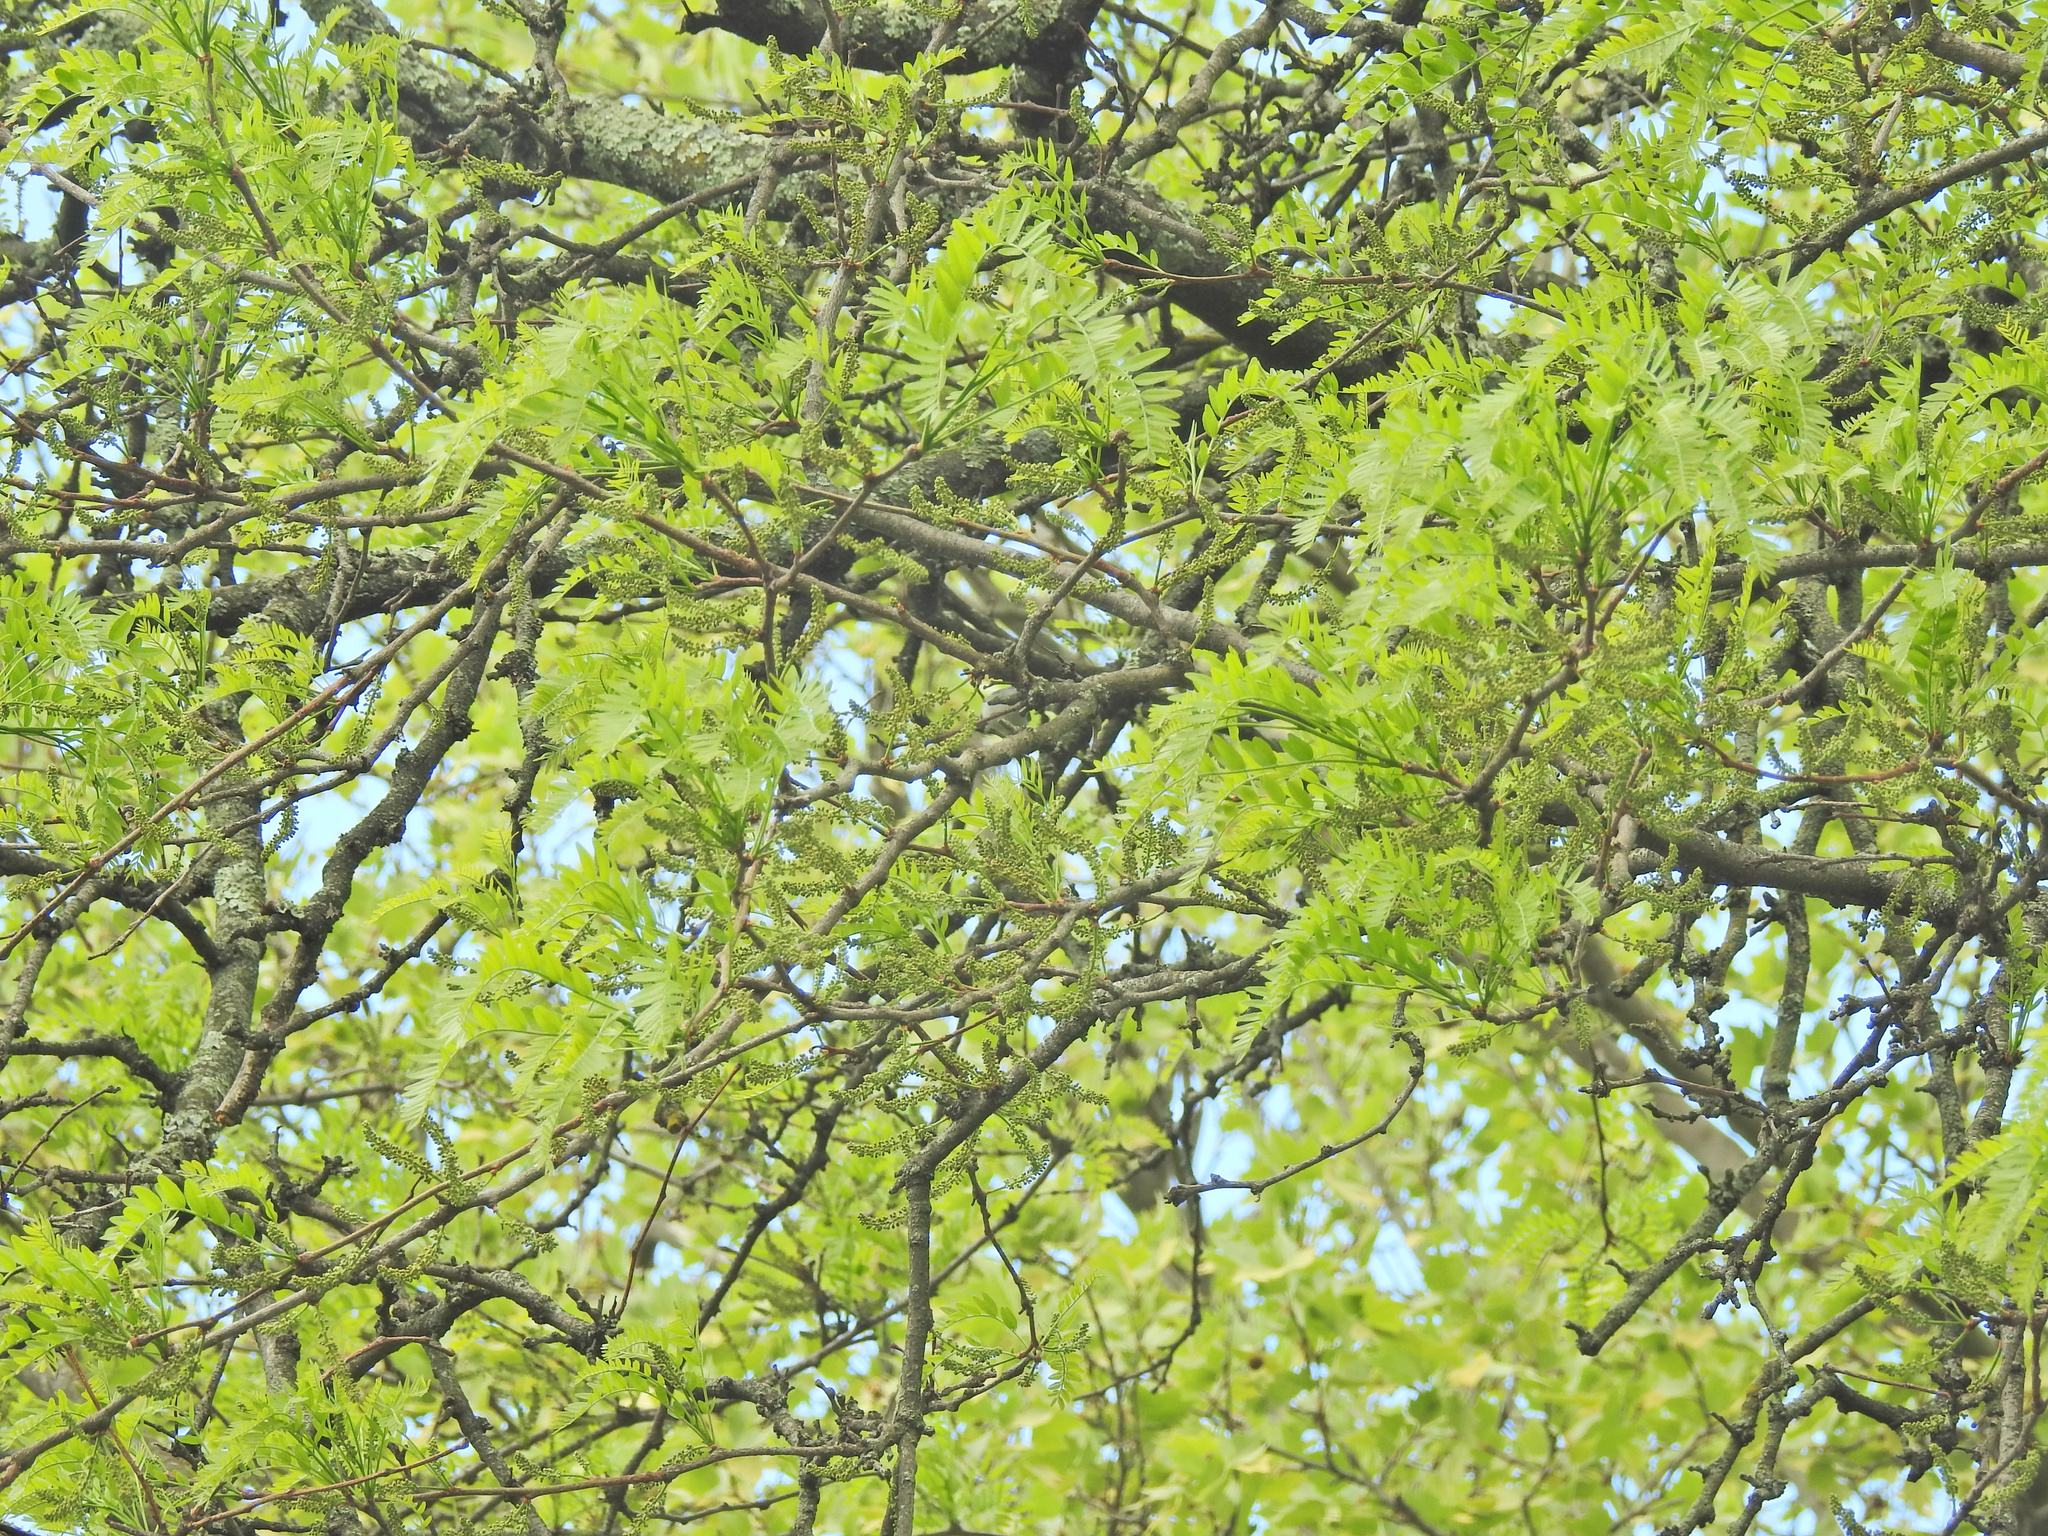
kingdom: Plantae
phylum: Tracheophyta
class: Magnoliopsida
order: Fabales
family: Fabaceae
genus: Gleditsia
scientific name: Gleditsia triacanthos
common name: Common honeylocust
